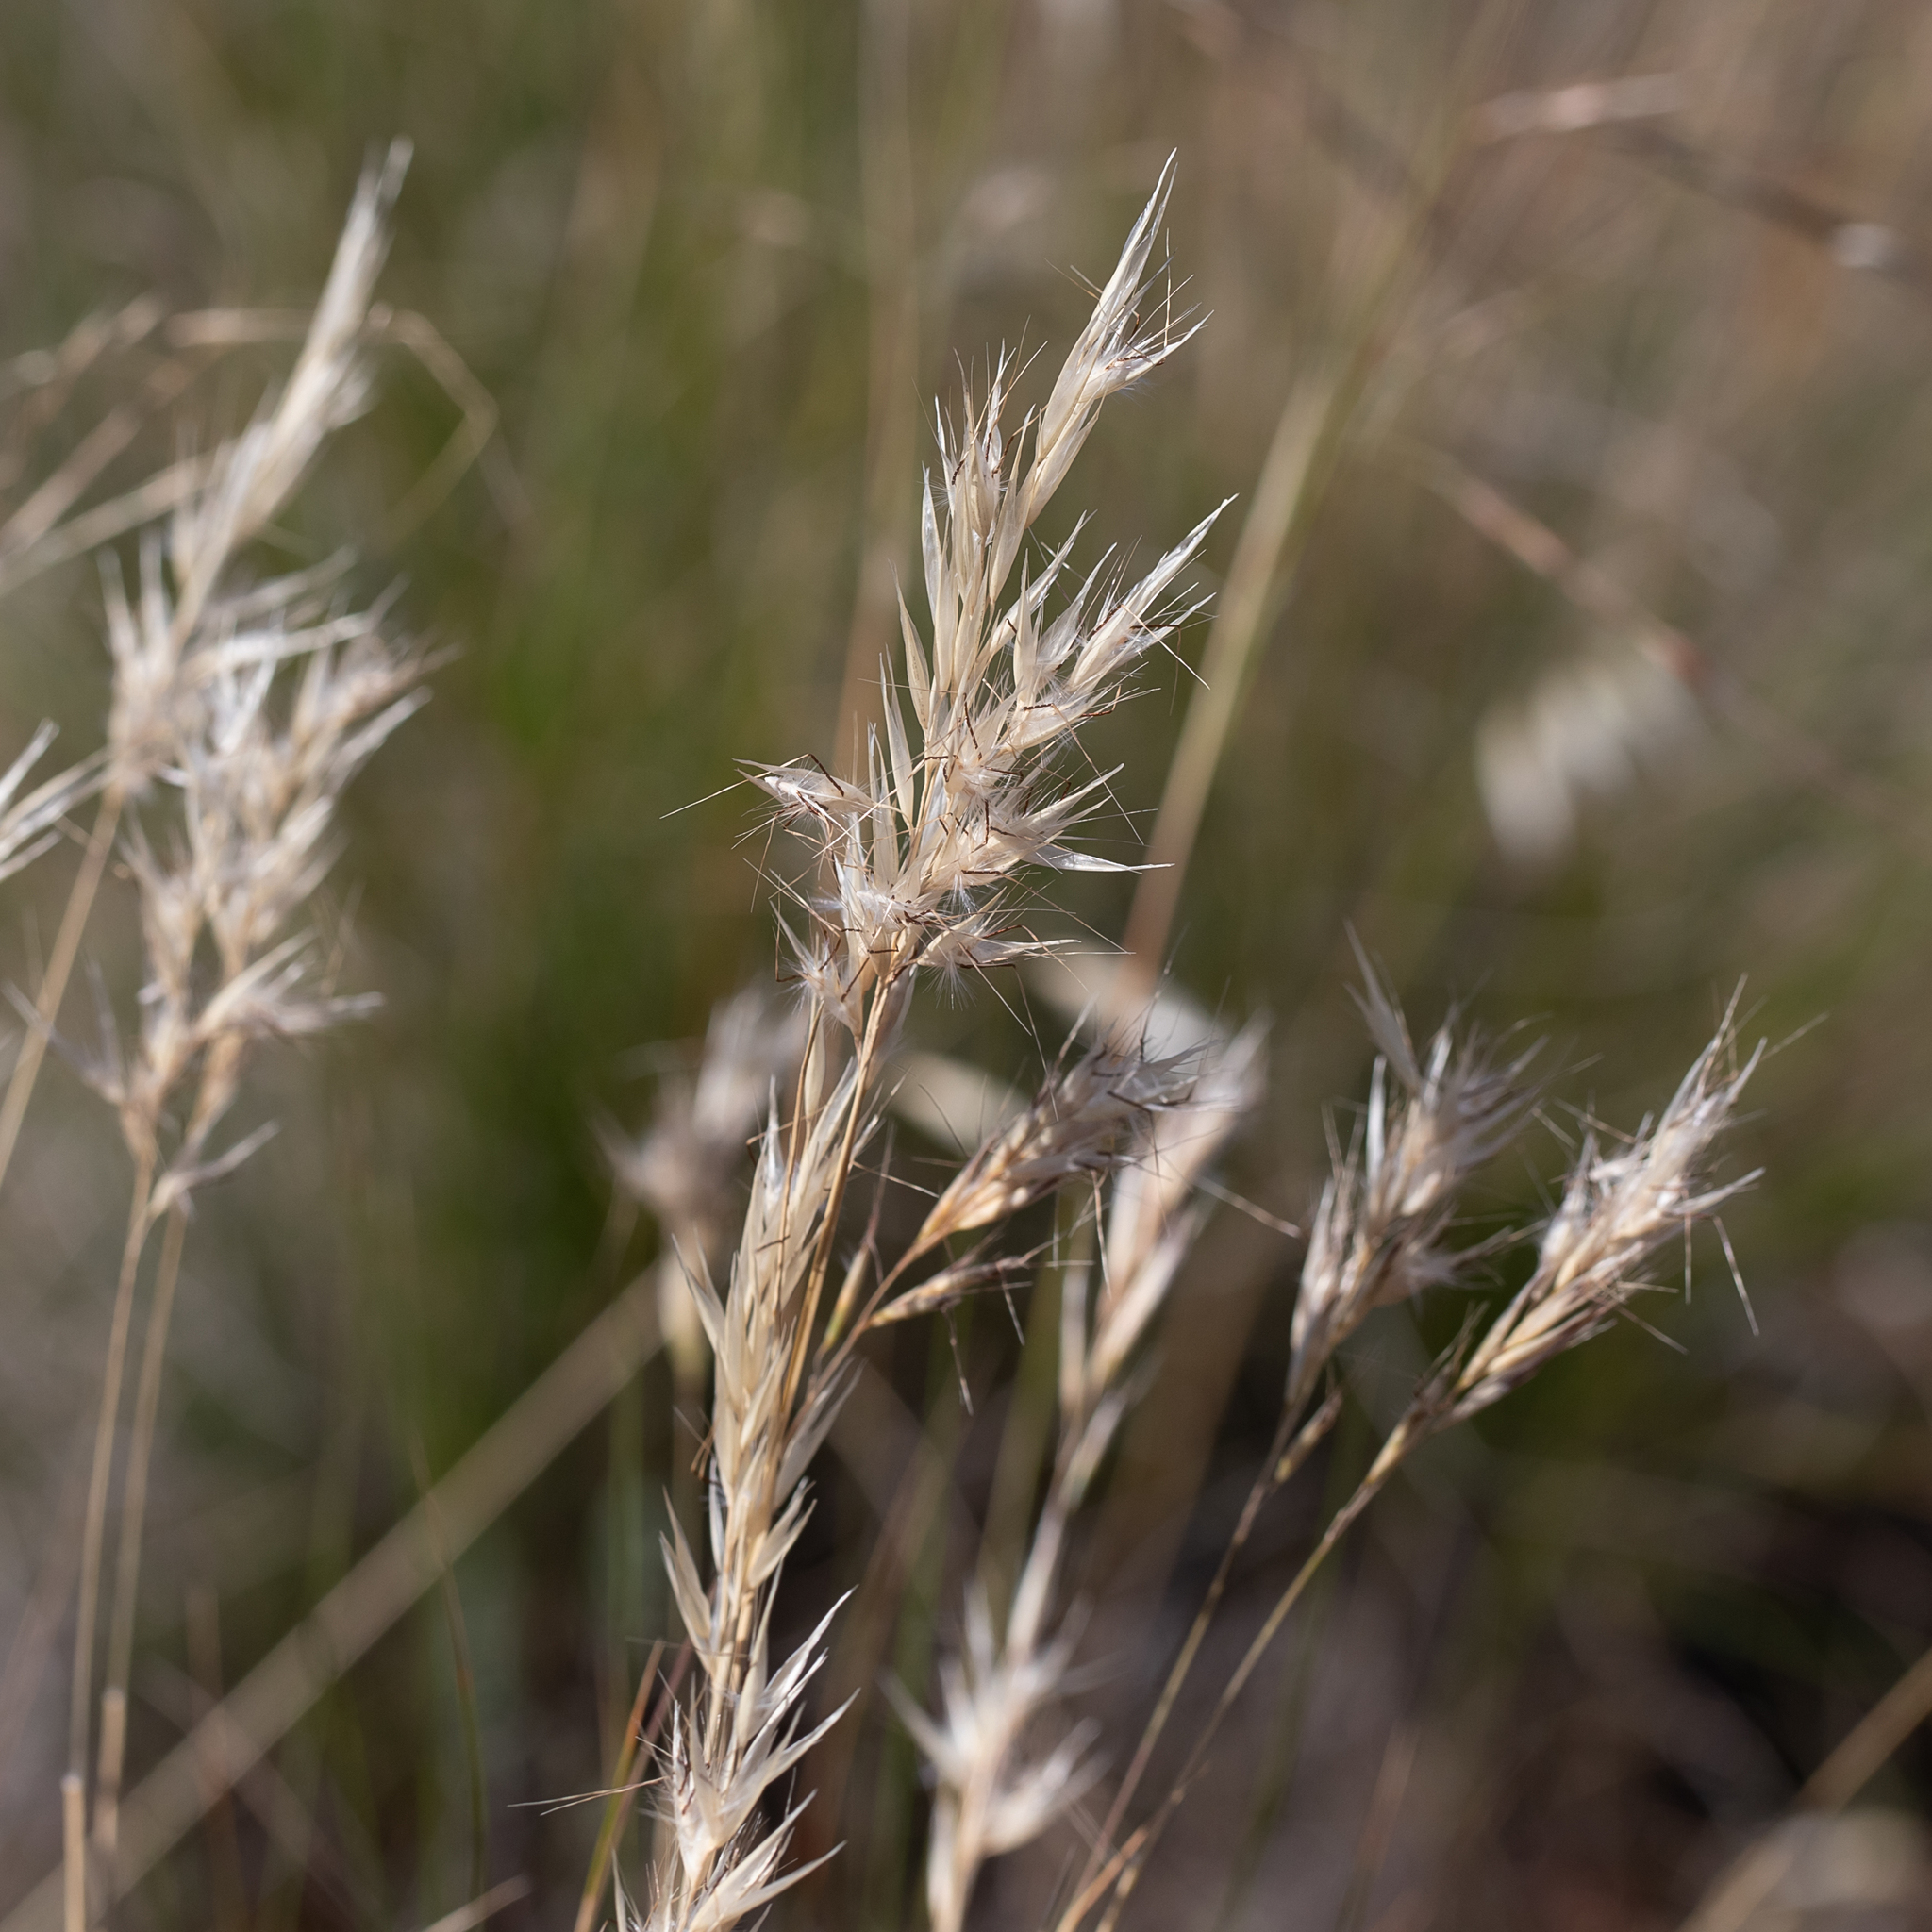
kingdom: Plantae
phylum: Tracheophyta
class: Liliopsida
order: Poales
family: Poaceae
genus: Rytidosperma
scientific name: Rytidosperma setaceum
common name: Small-flower wallaby grass
